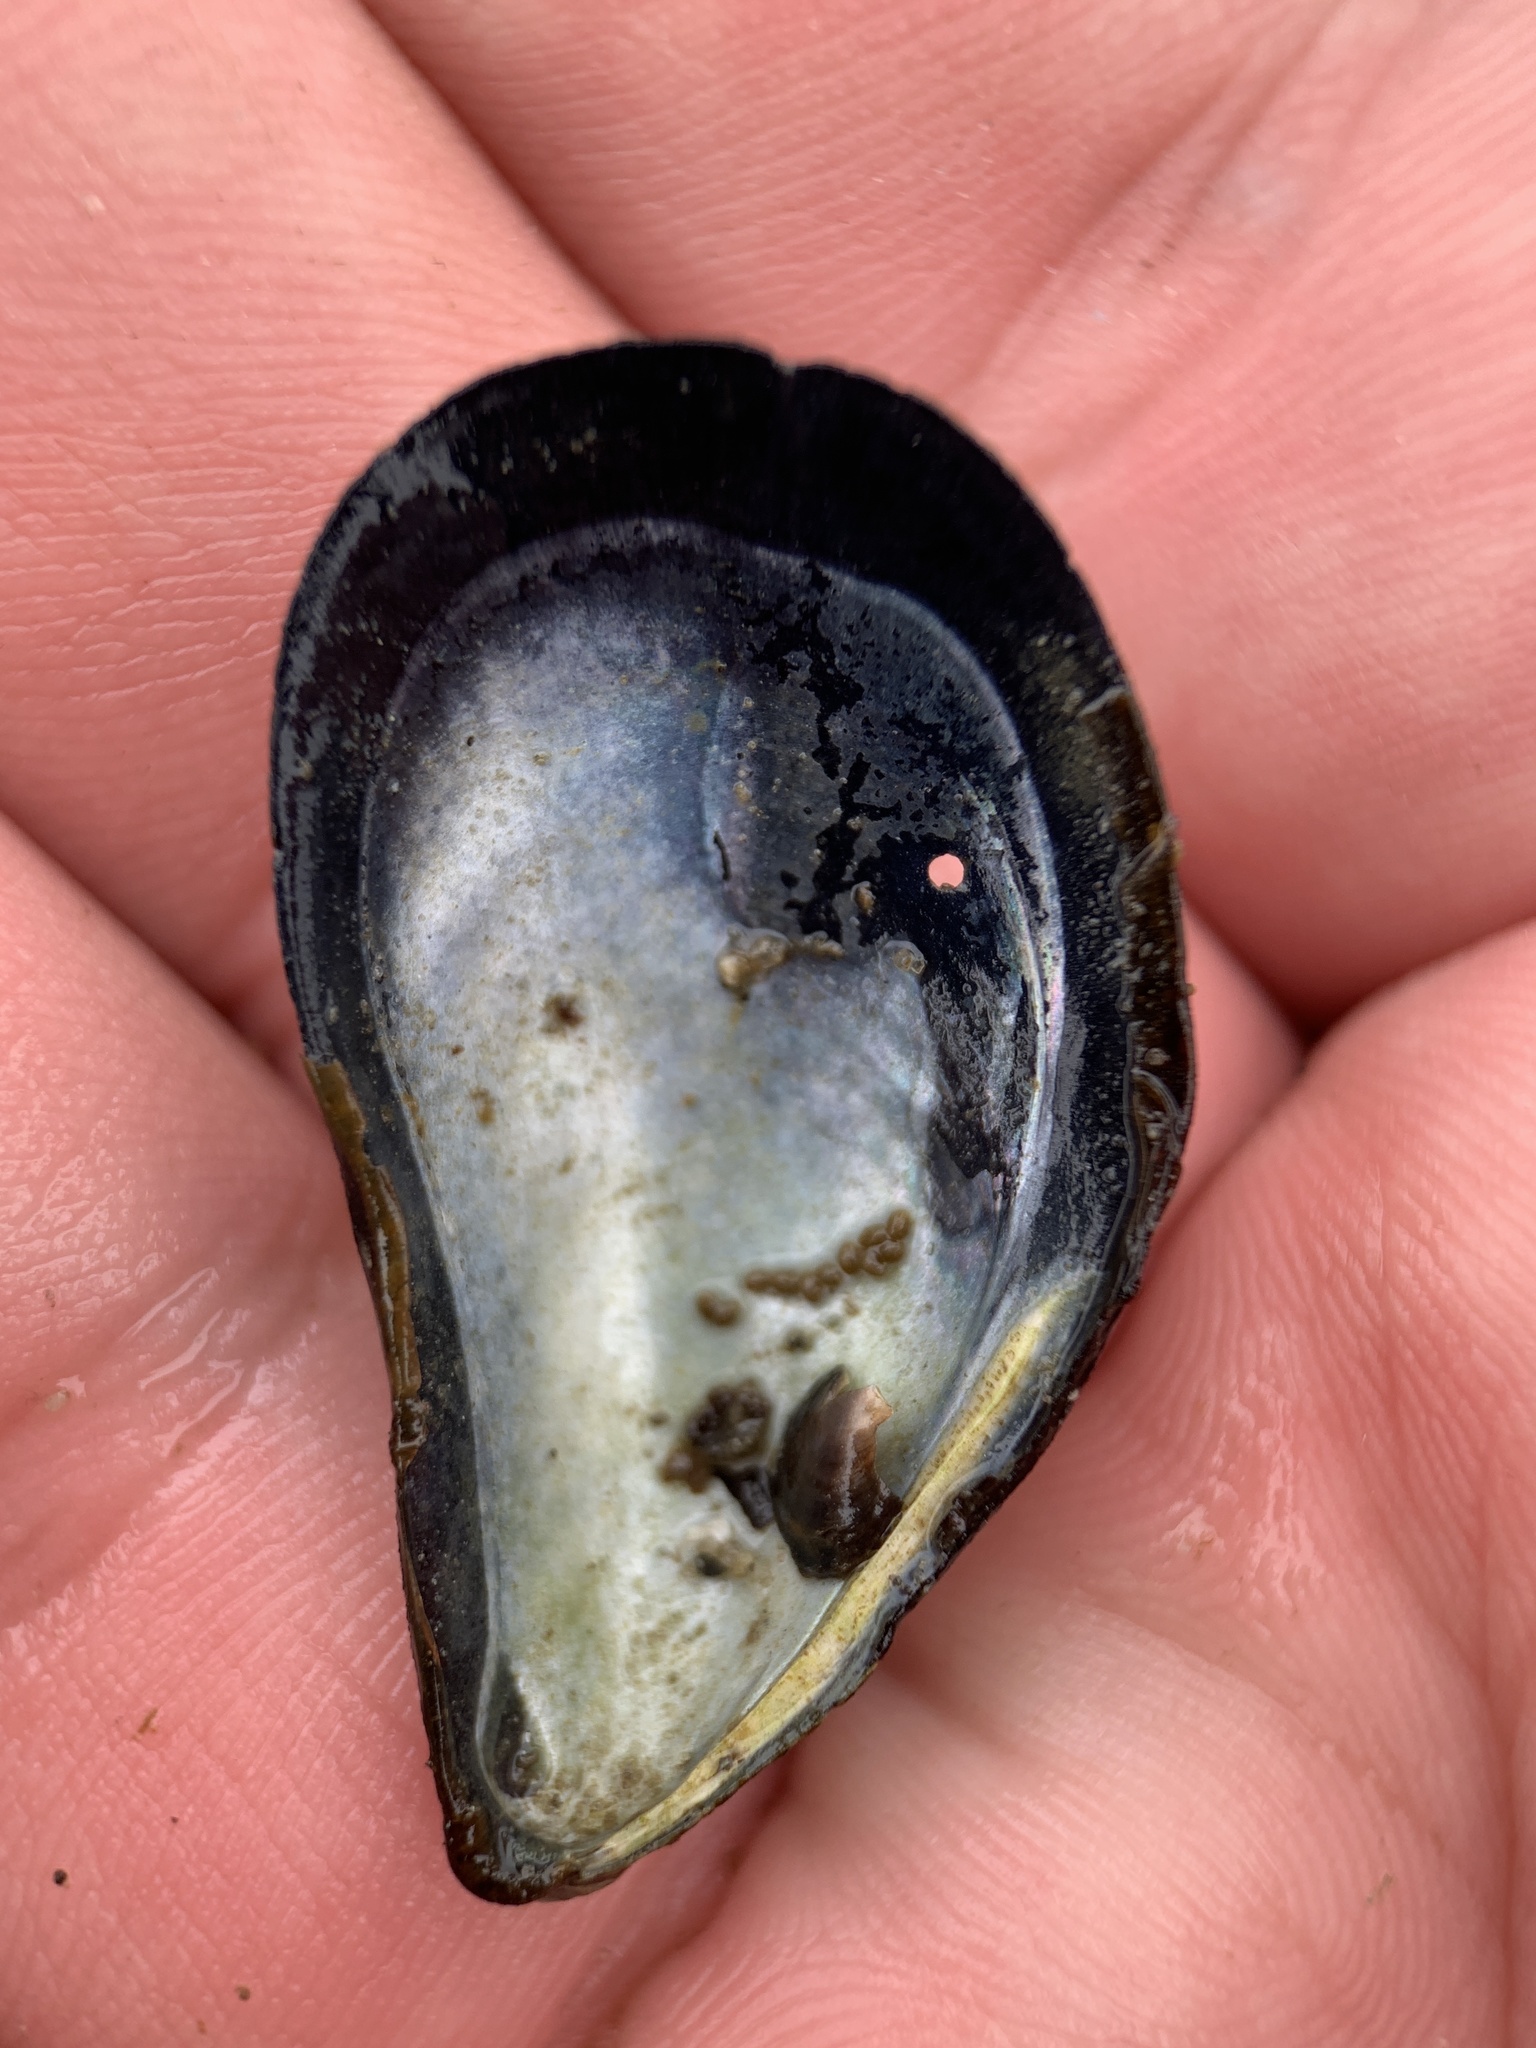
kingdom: Animalia
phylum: Mollusca
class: Bivalvia
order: Mytilida
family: Mytilidae
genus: Mytilus
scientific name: Mytilus edulis
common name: Blue mussel
